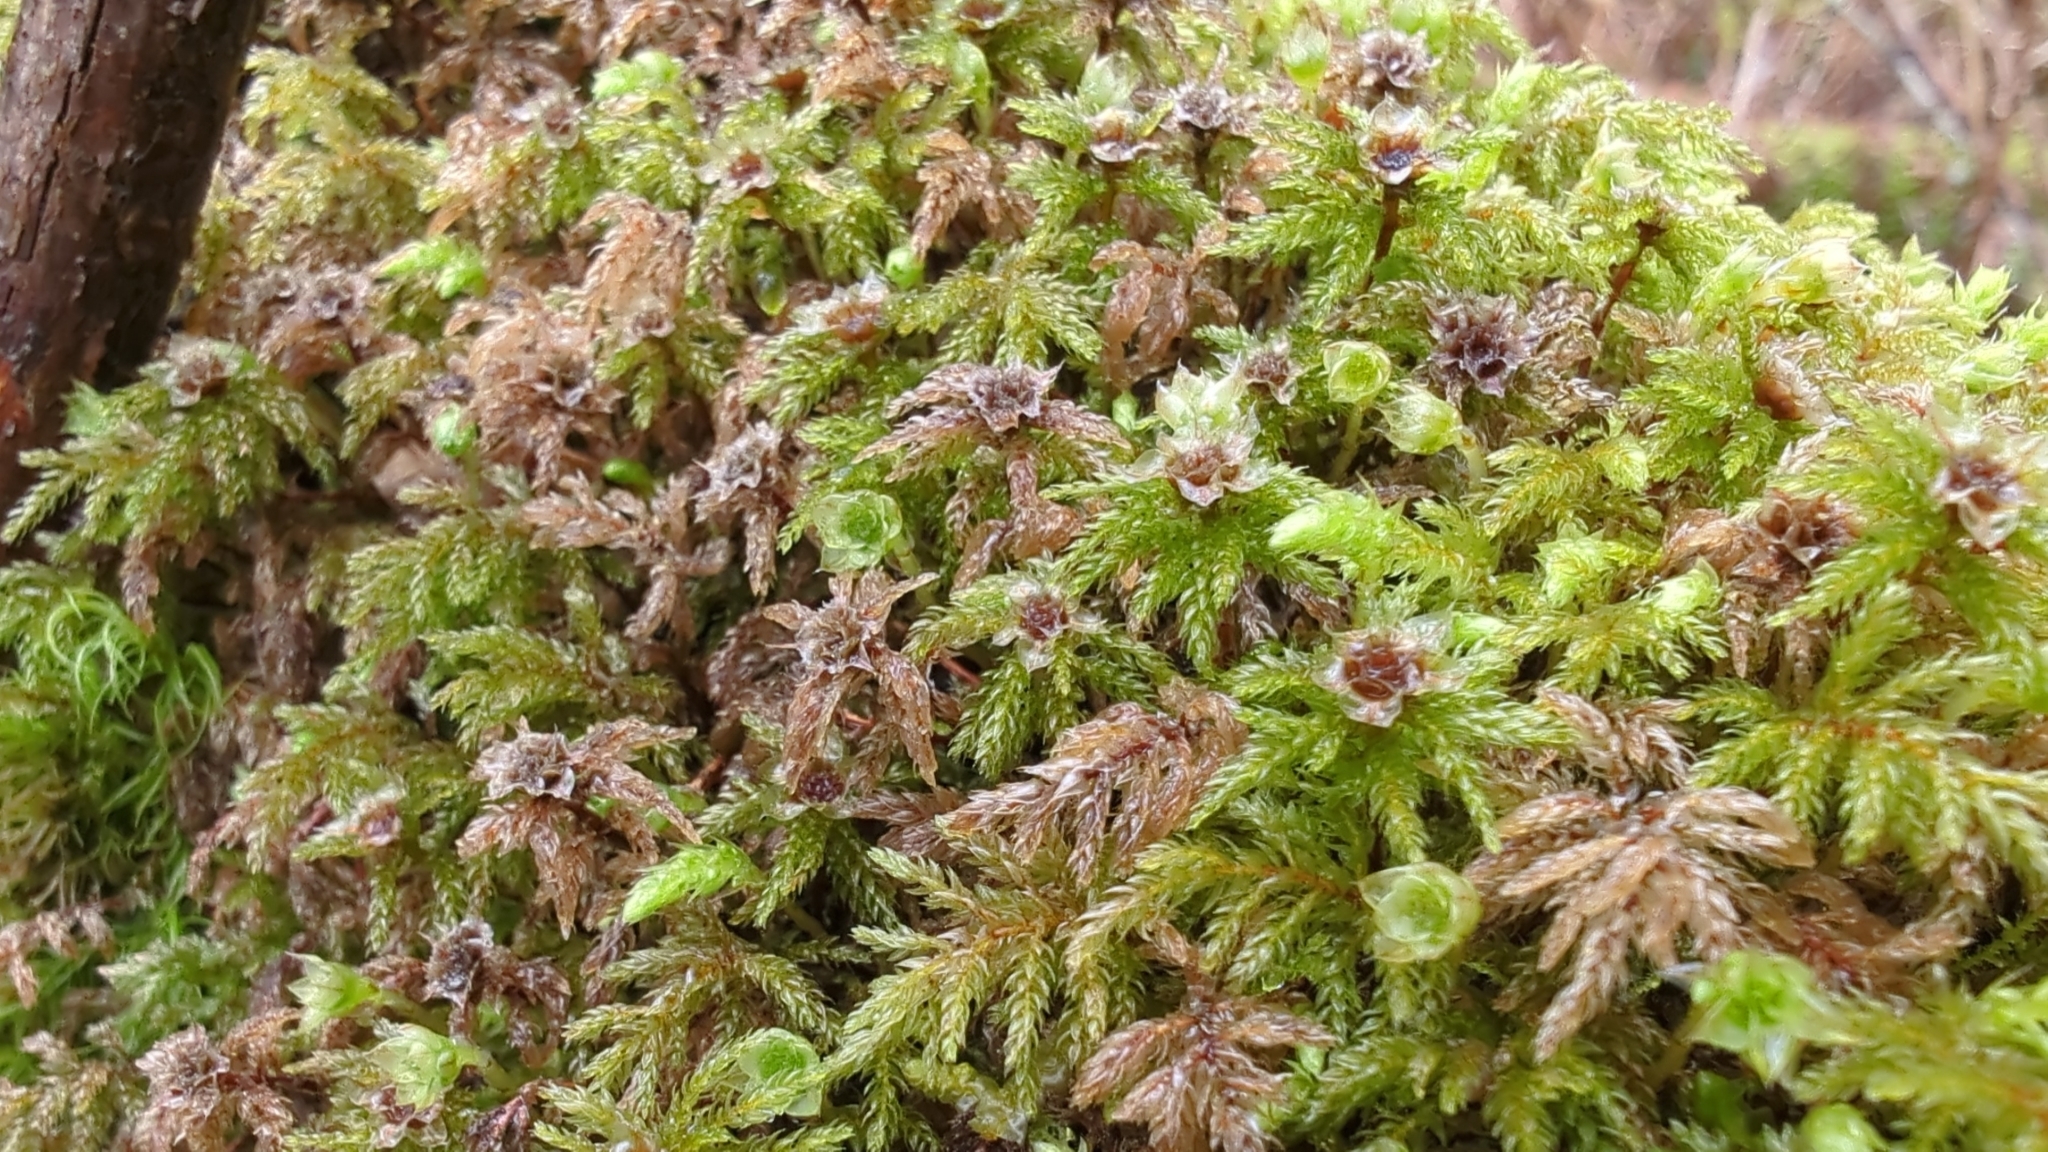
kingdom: Plantae
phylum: Bryophyta
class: Bryopsida
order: Bryales
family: Mniaceae
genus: Leucolepis
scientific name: Leucolepis acanthoneura
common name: Leucolepis umbrella moss
